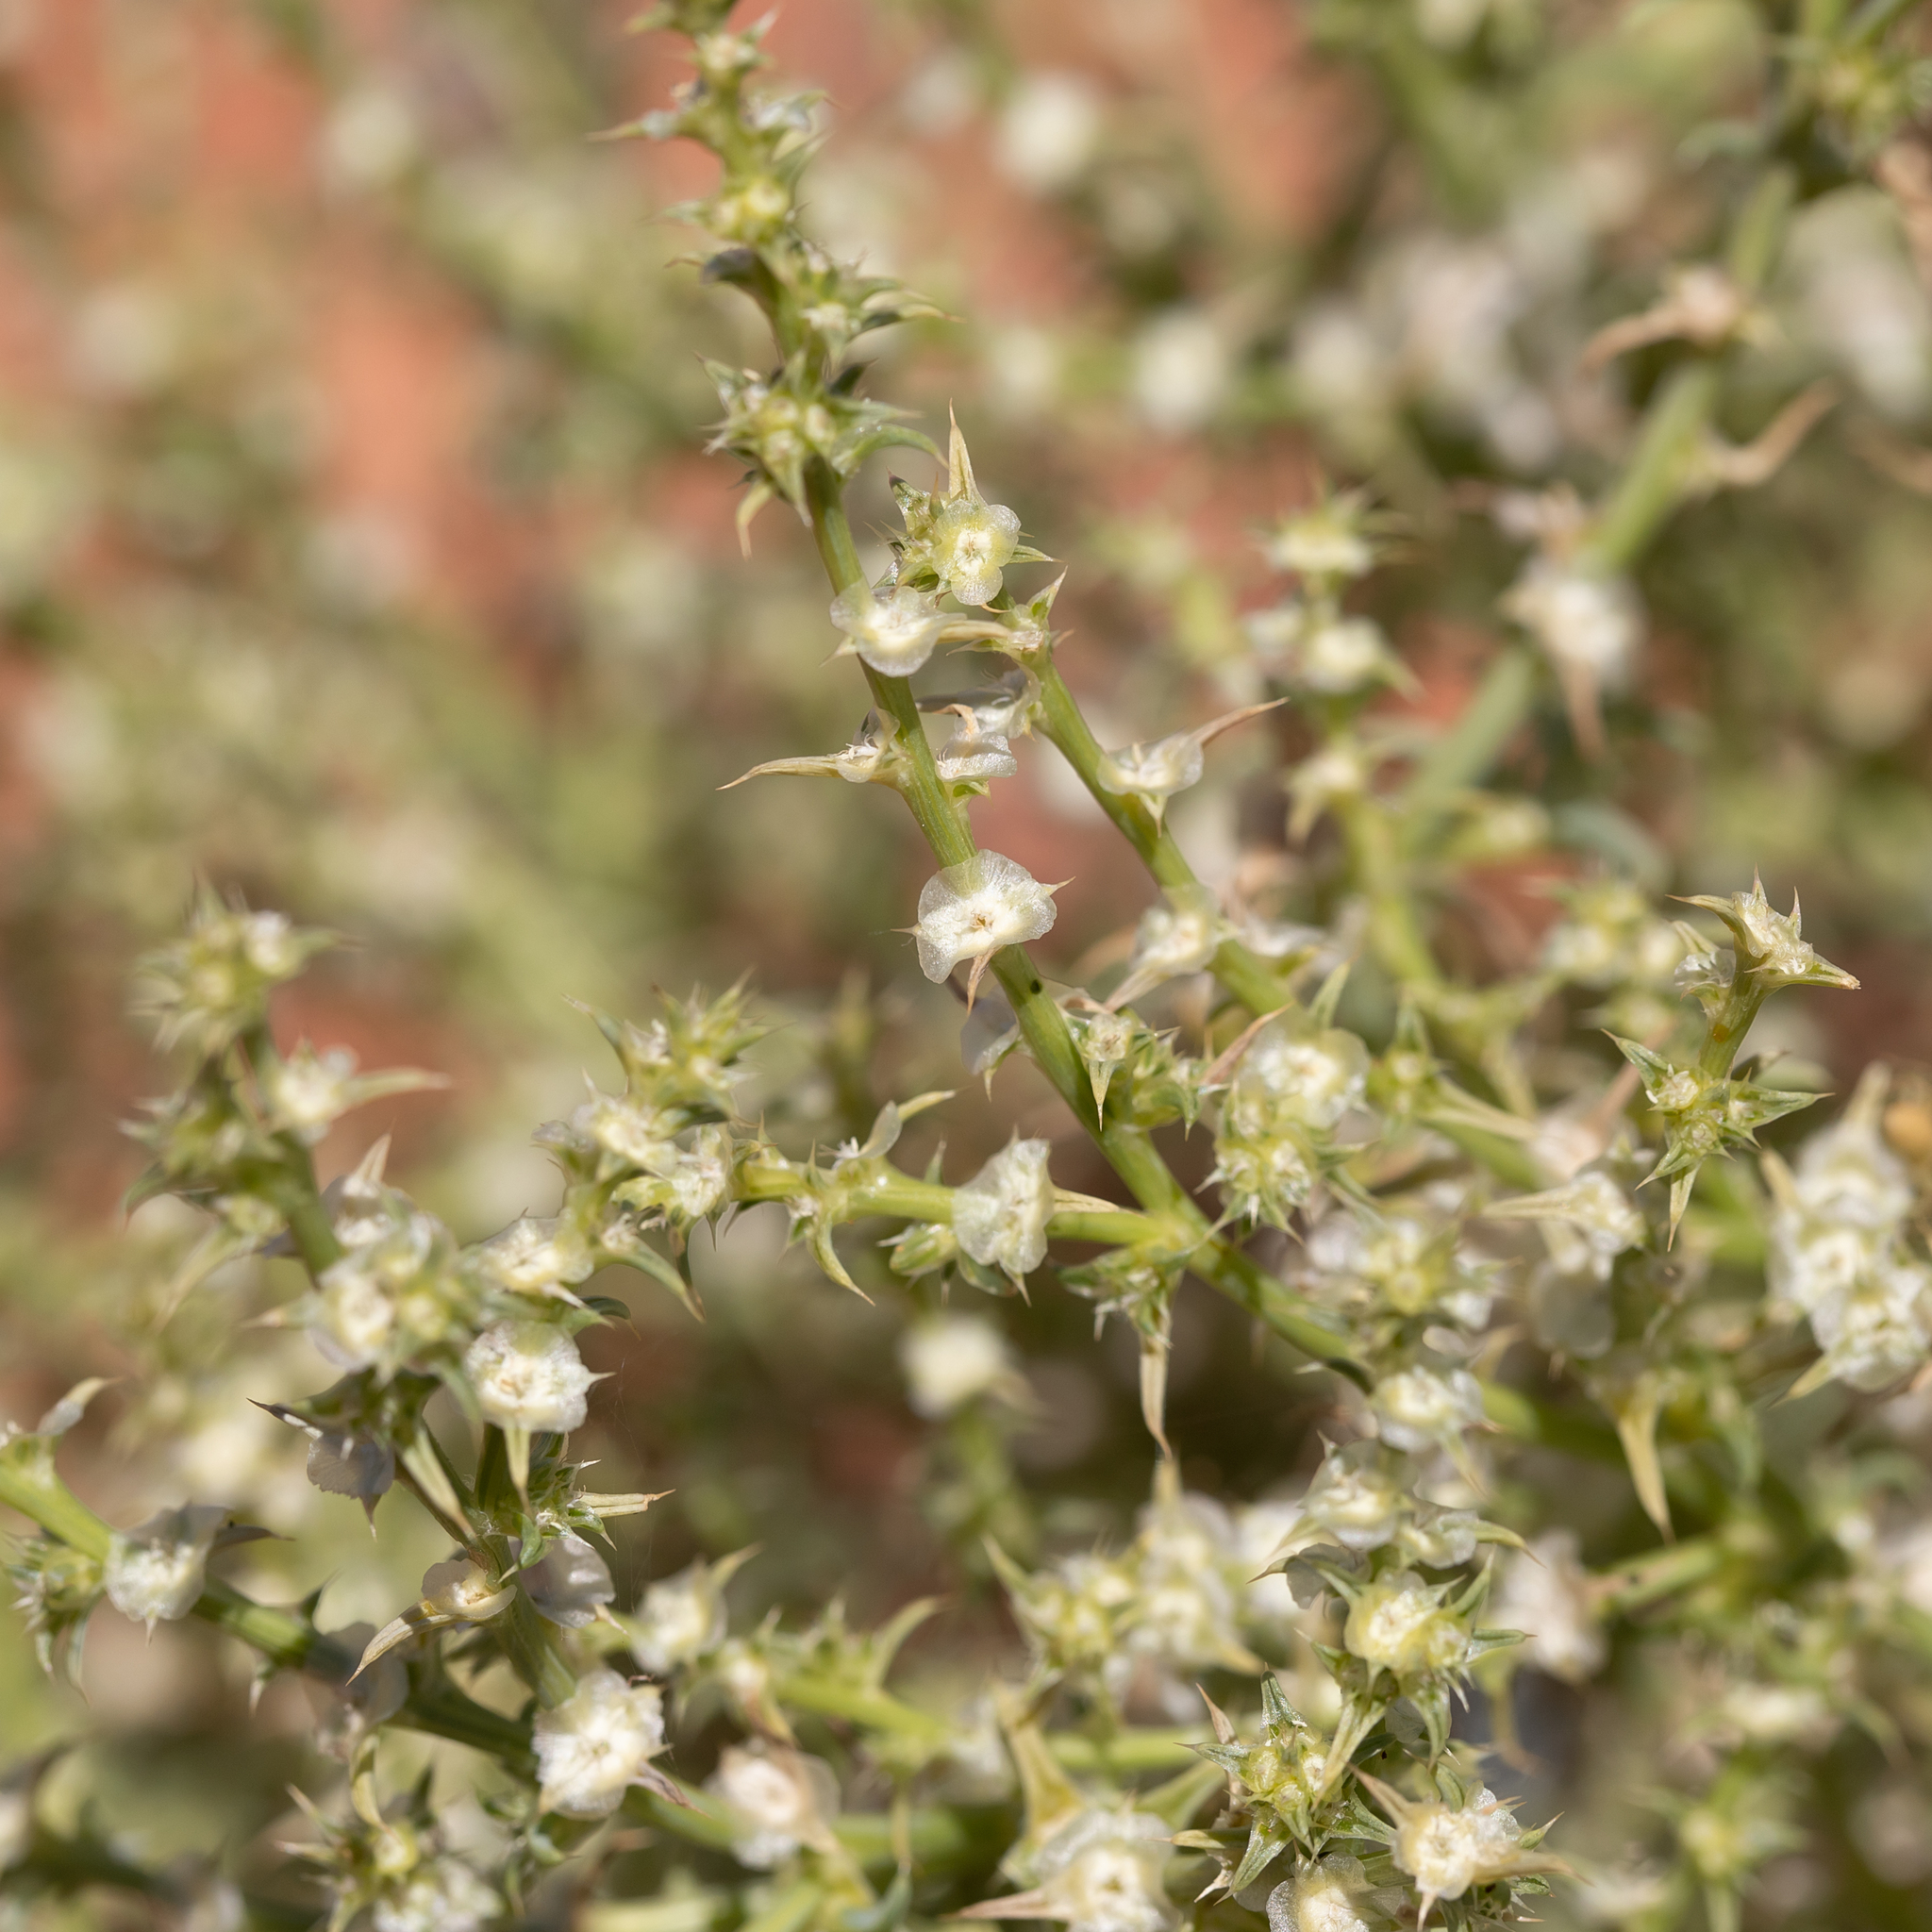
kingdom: Plantae
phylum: Tracheophyta
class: Magnoliopsida
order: Caryophyllales
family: Amaranthaceae
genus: Salsola
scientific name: Salsola australis
